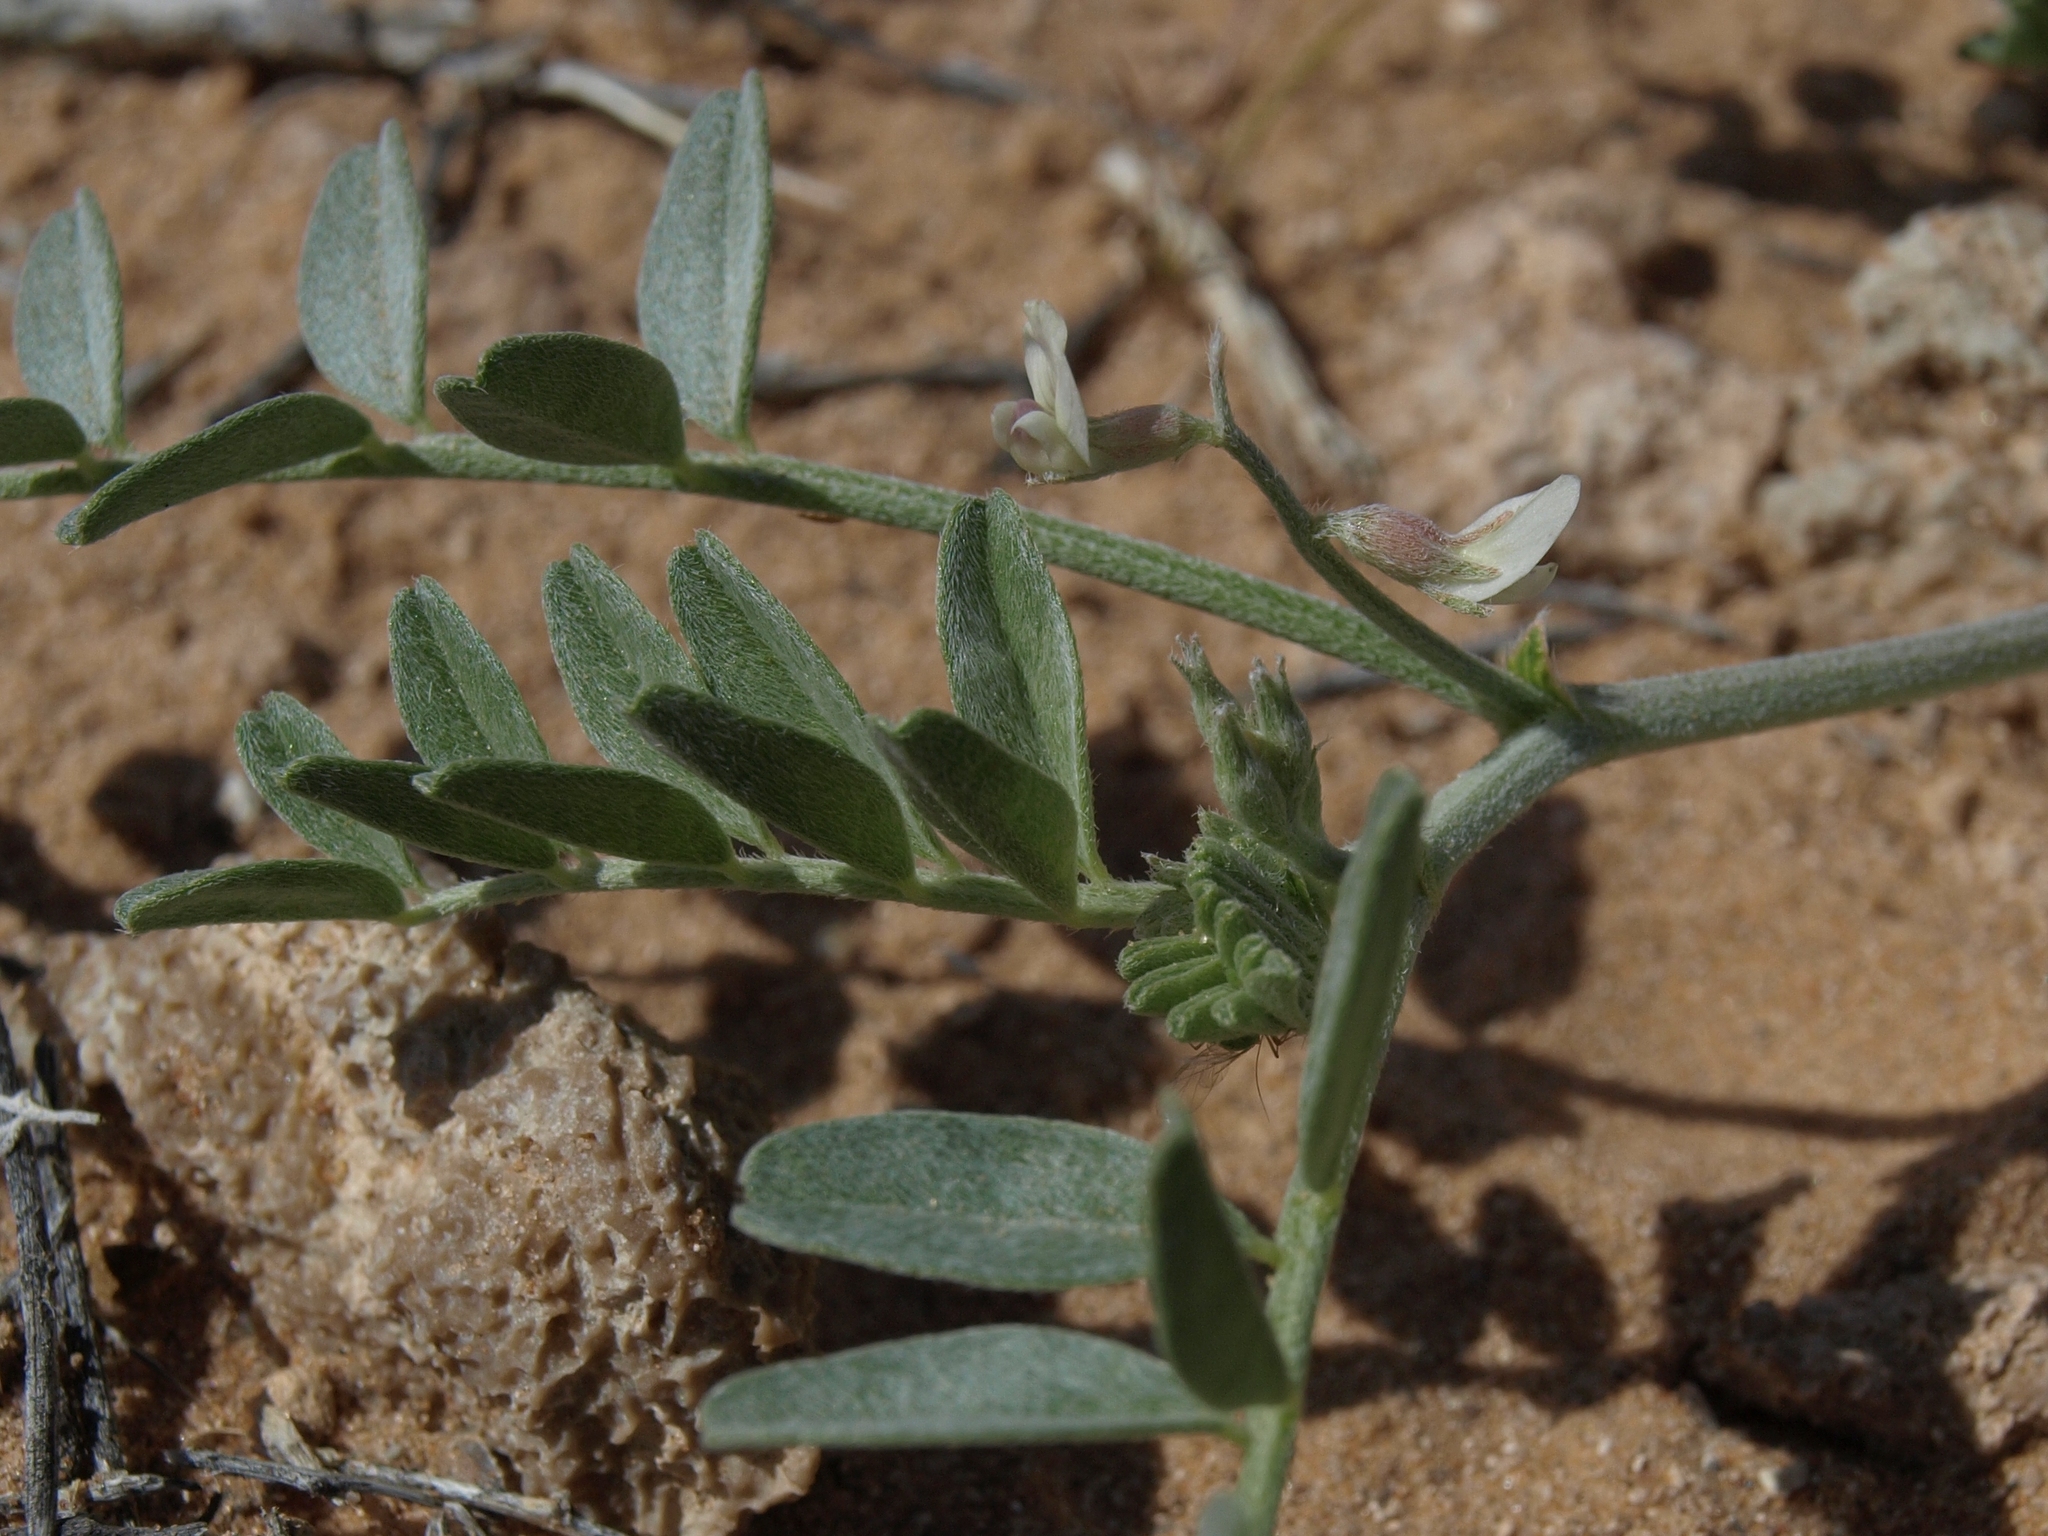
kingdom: Plantae
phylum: Tracheophyta
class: Magnoliopsida
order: Fabales
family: Fabaceae
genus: Astragalus
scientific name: Astragalus geyeri
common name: Geyer's milkvetch
